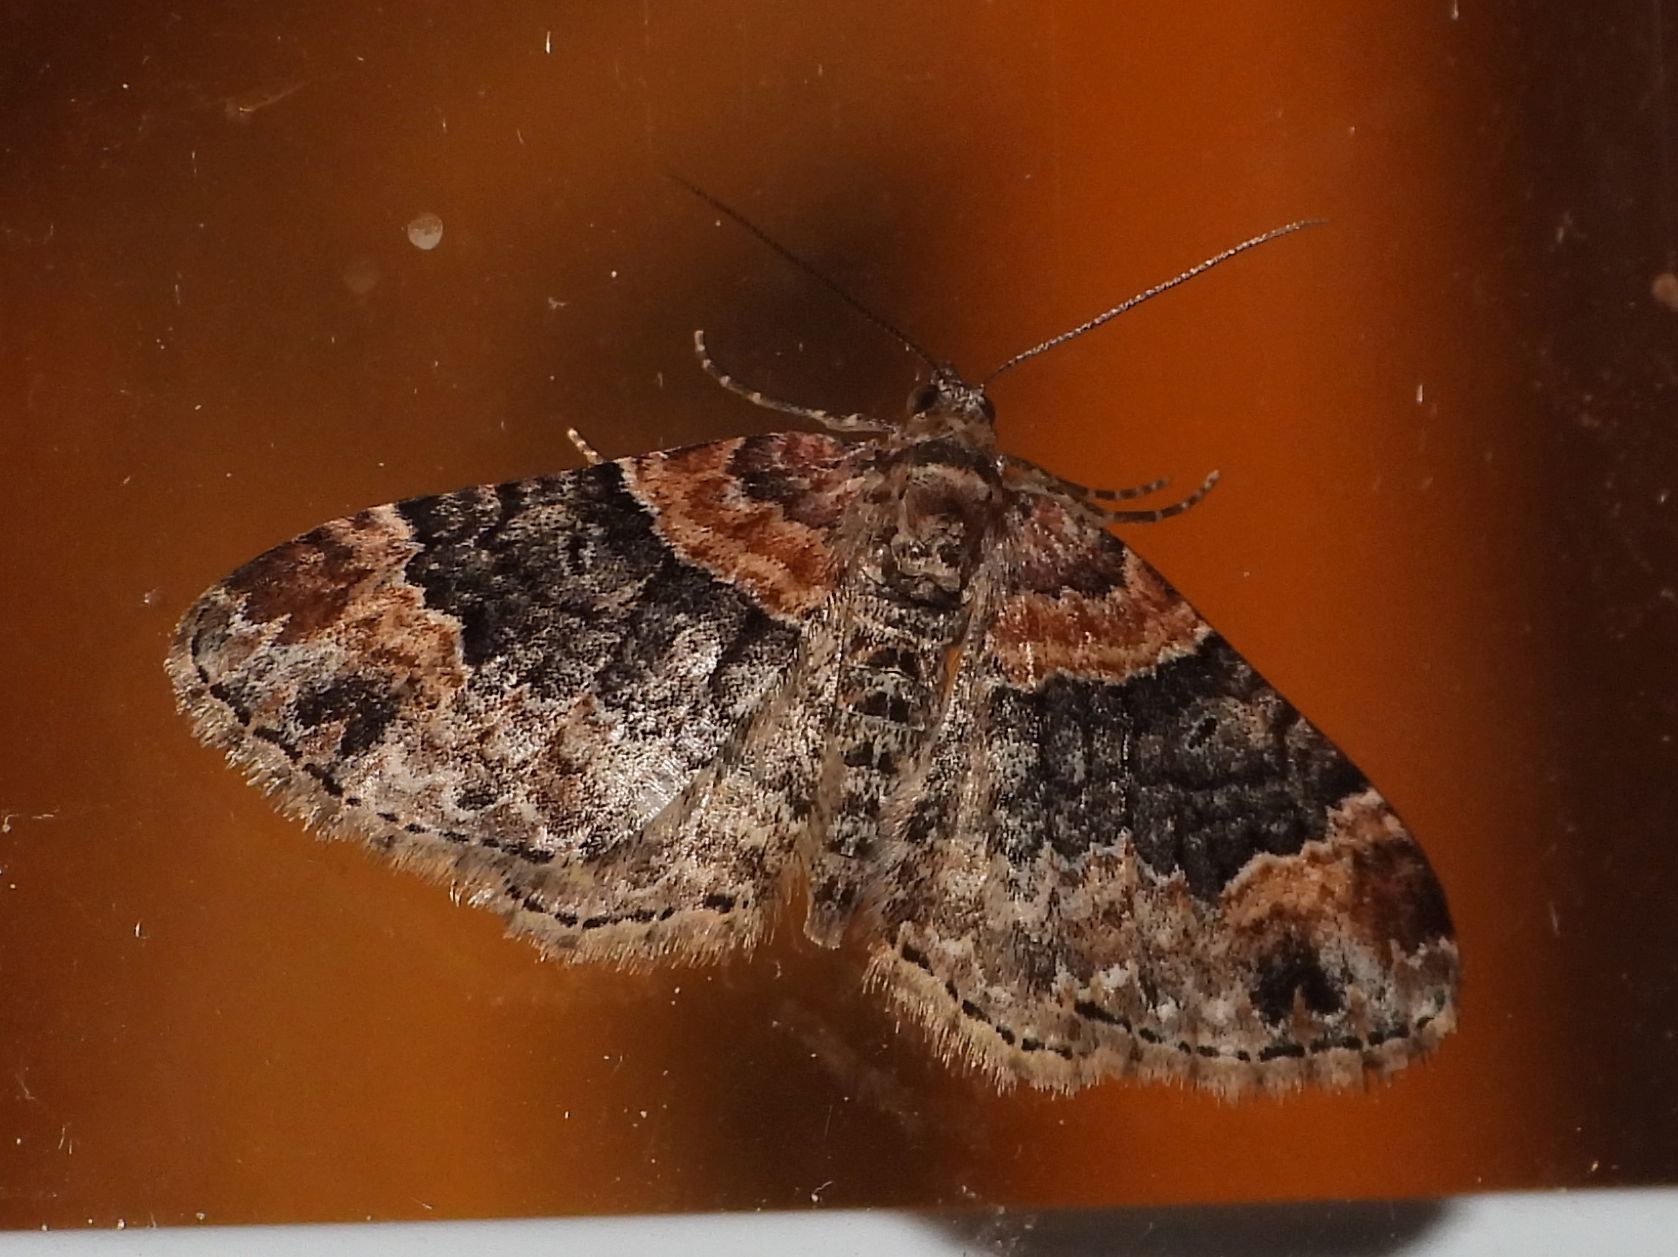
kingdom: Animalia
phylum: Arthropoda
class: Insecta
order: Lepidoptera
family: Geometridae
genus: Xanthorhoe
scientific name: Xanthorhoe ferrugata
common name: Dark-barred twin-spot carpet
